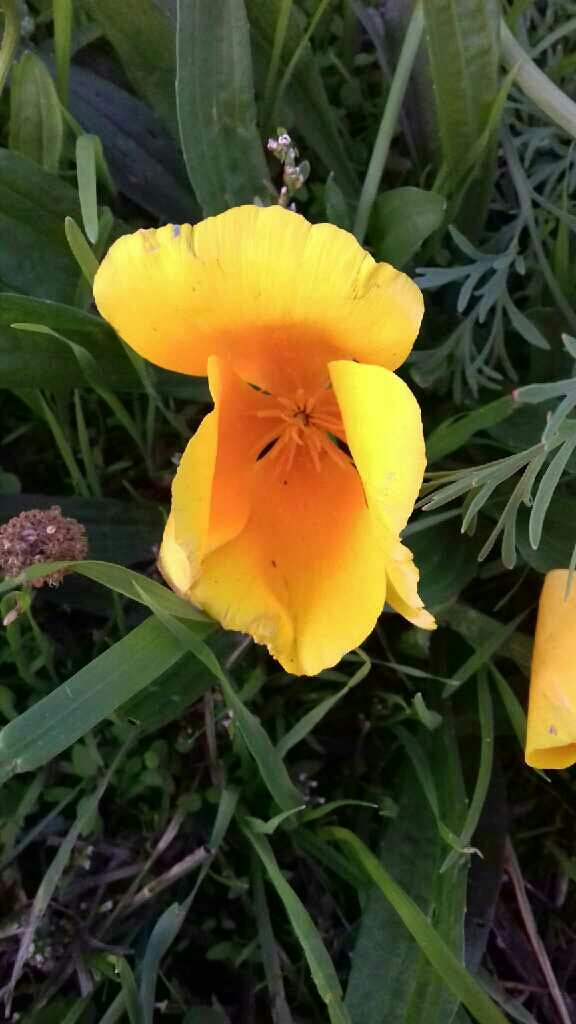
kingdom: Plantae
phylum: Tracheophyta
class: Magnoliopsida
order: Ranunculales
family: Papaveraceae
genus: Eschscholzia
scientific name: Eschscholzia californica
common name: California poppy
